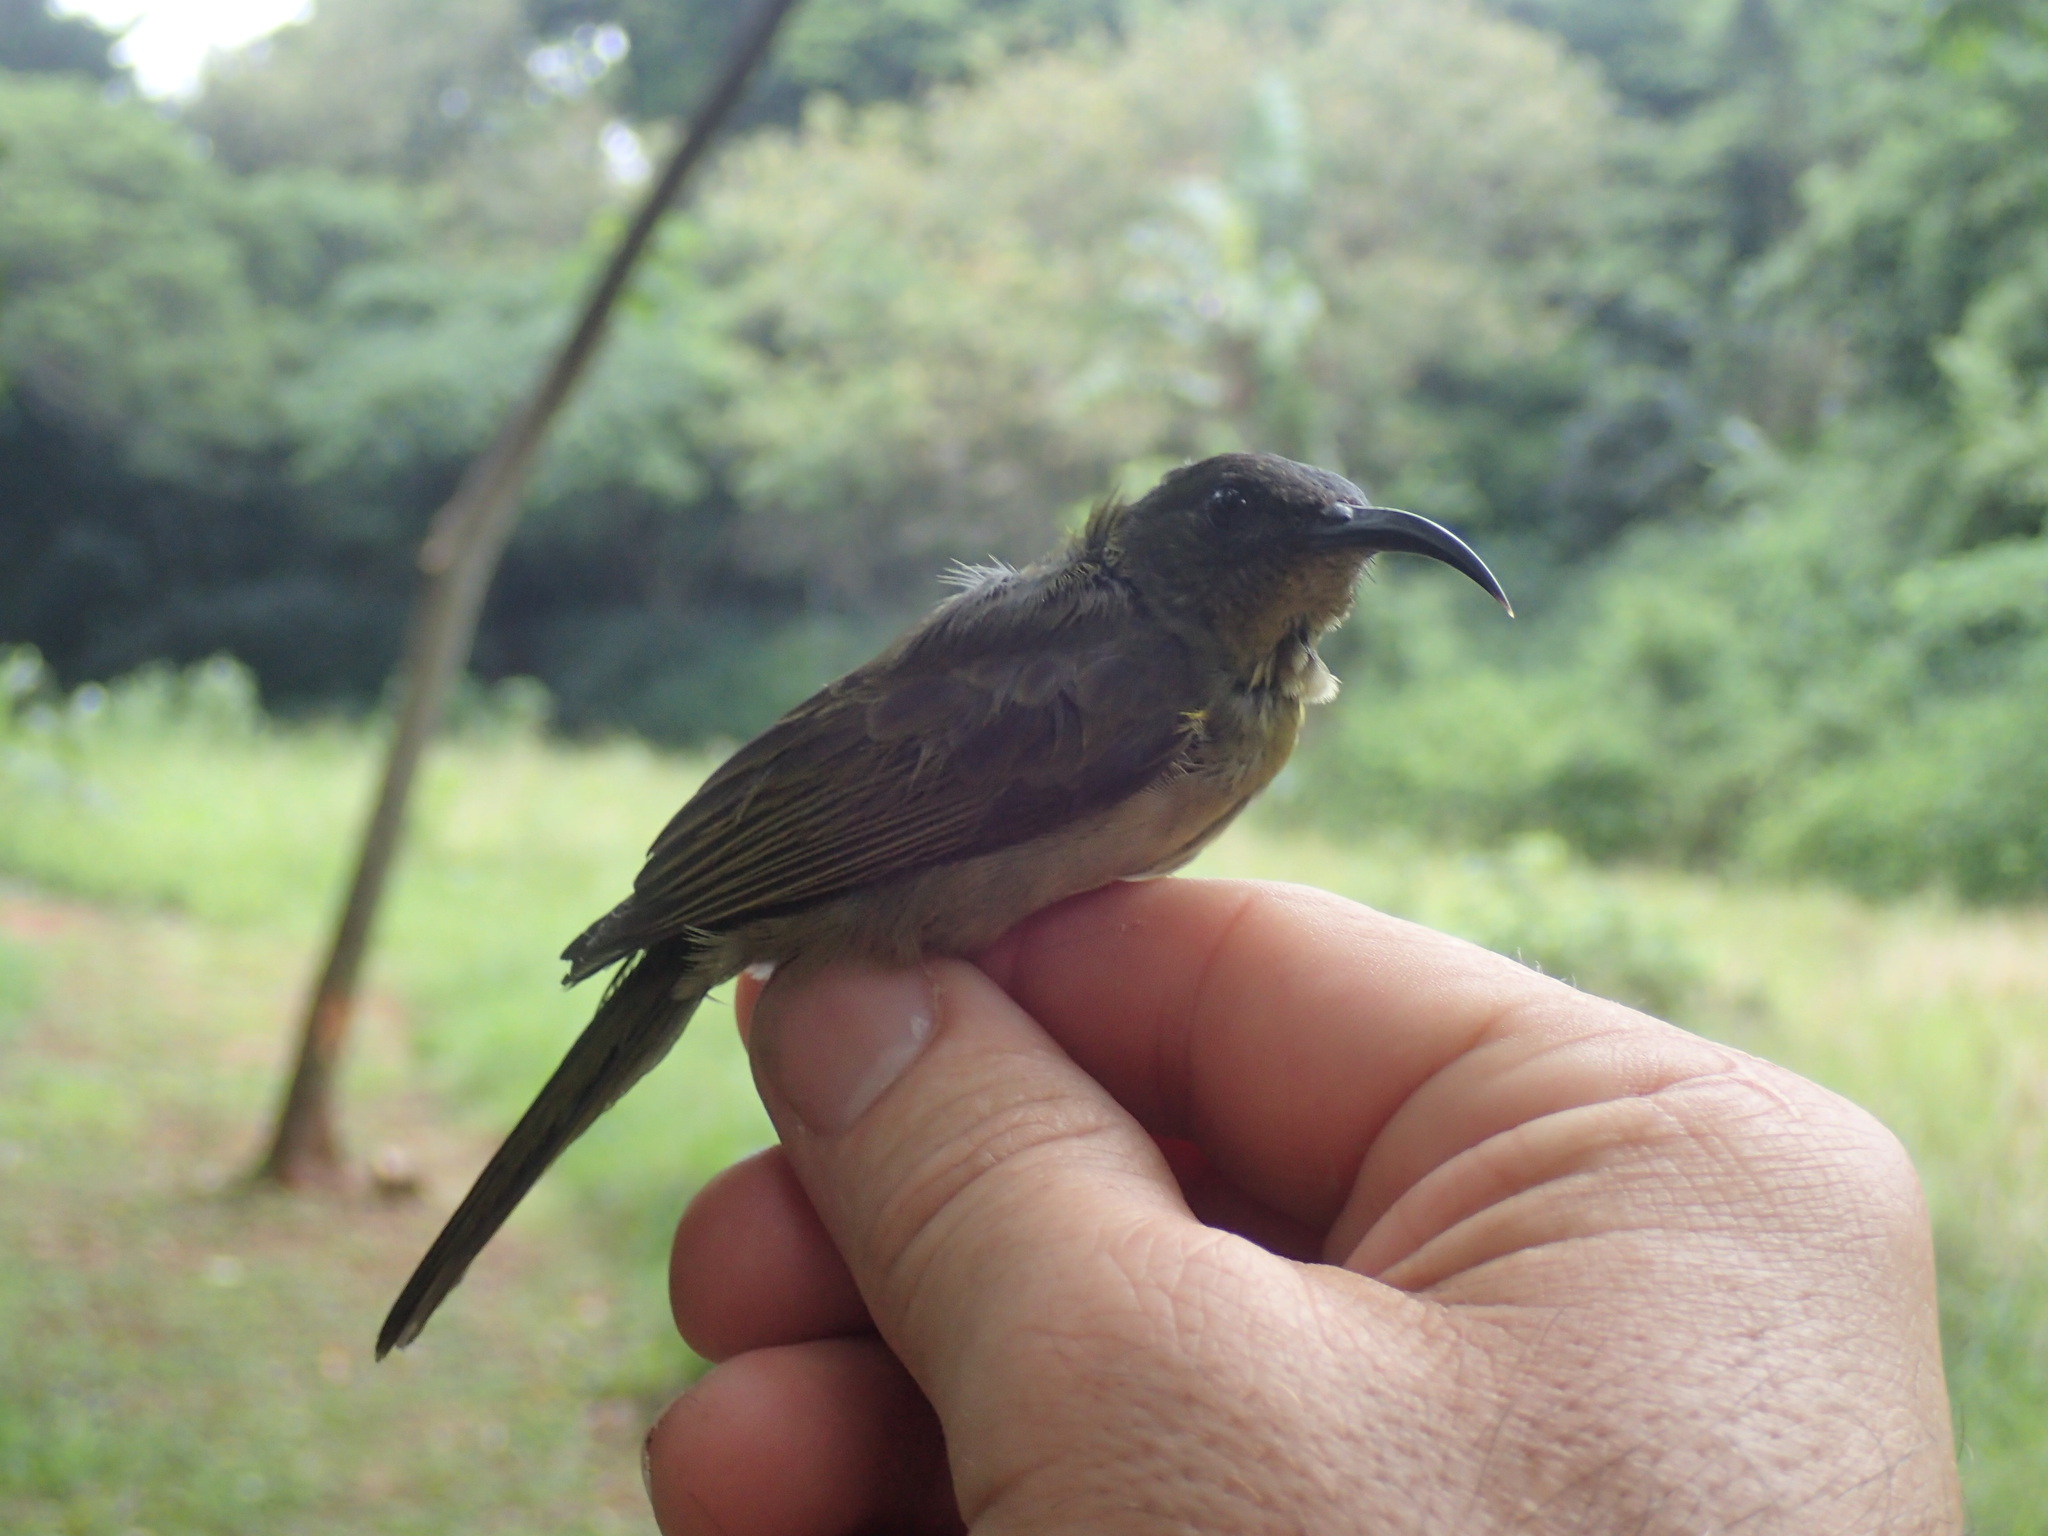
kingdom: Animalia
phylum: Chordata
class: Aves
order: Passeriformes
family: Nectariniidae
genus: Cyanomitra
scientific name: Cyanomitra olivacea
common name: Olive sunbird
